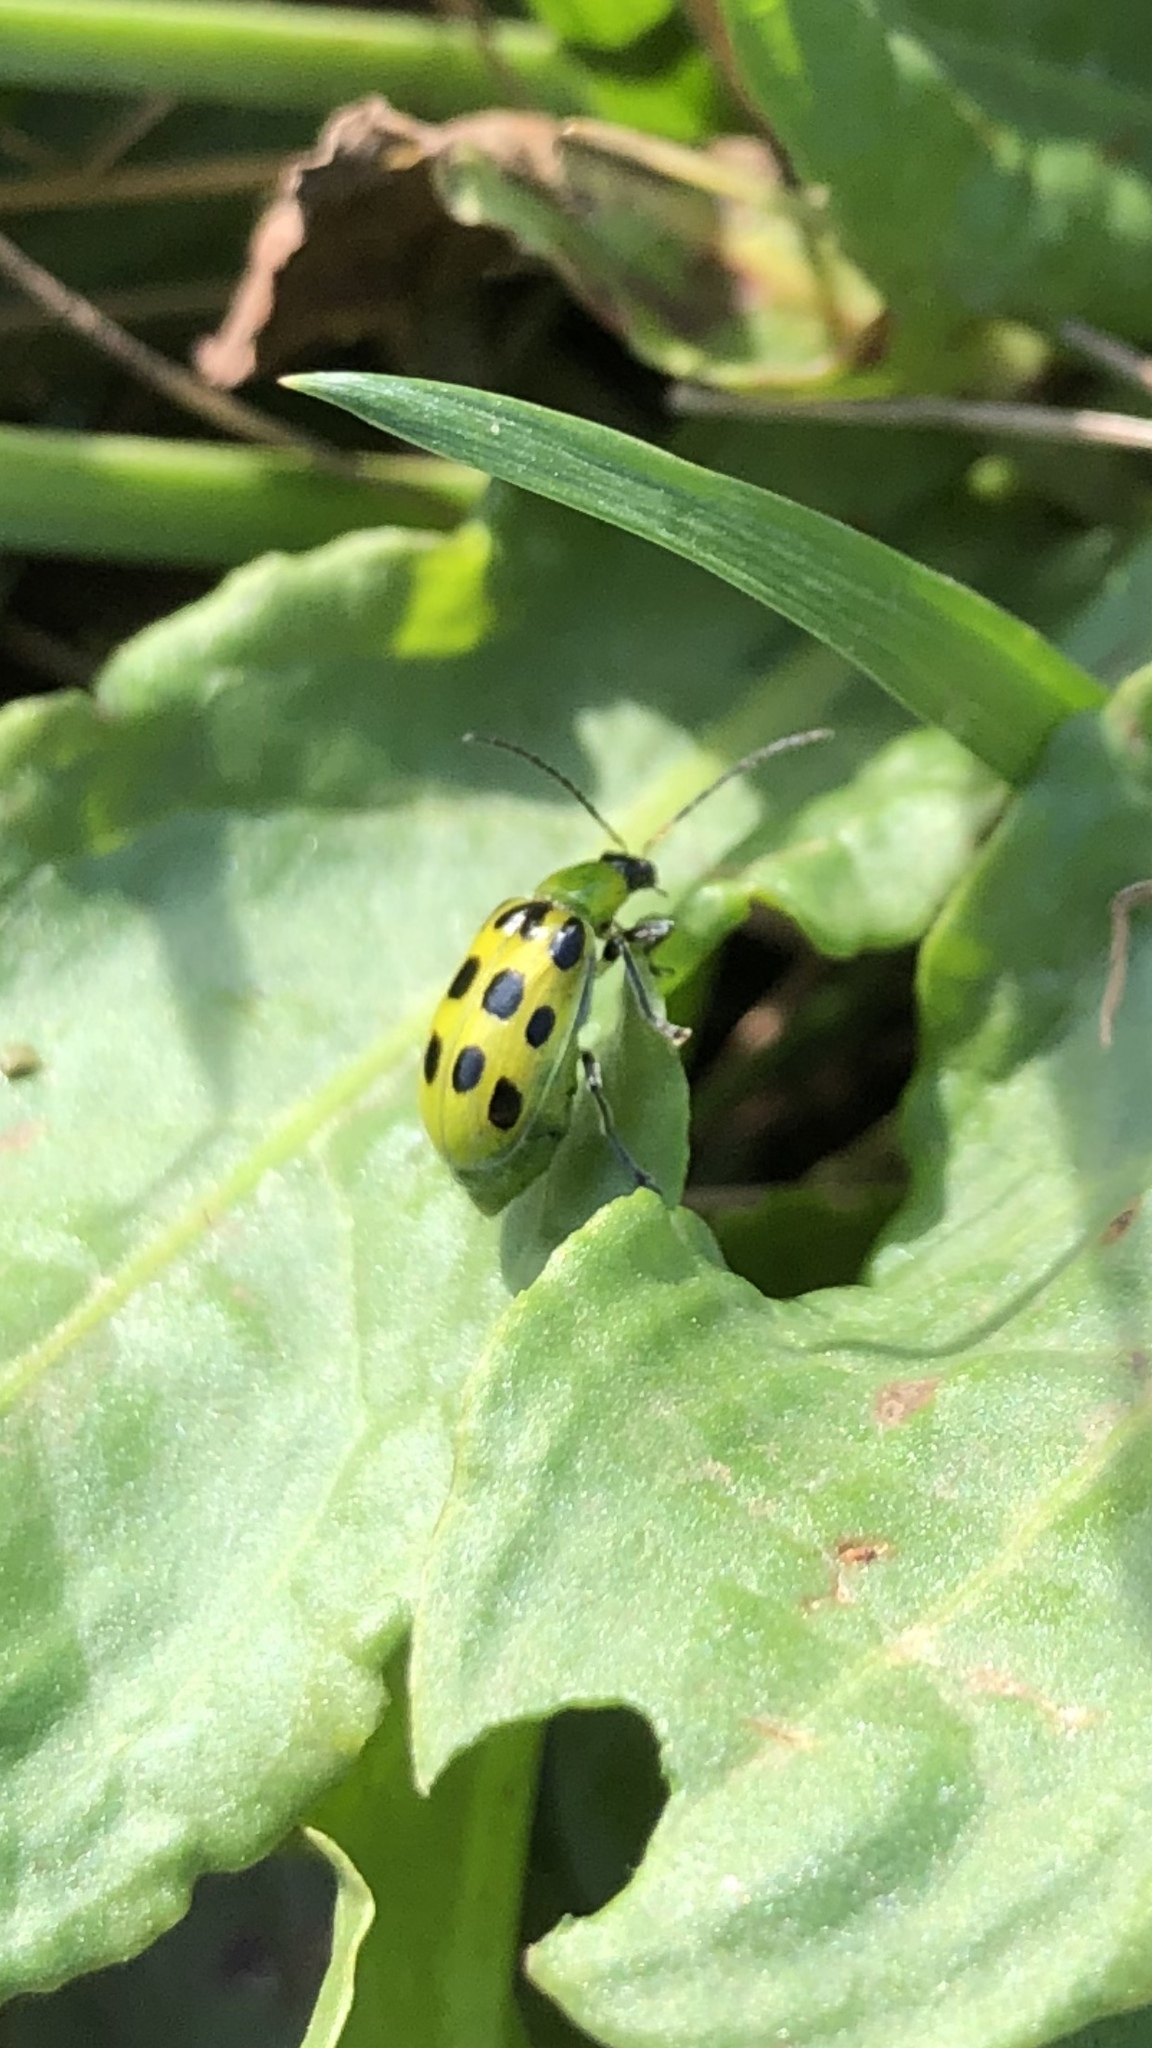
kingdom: Animalia
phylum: Arthropoda
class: Insecta
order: Coleoptera
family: Chrysomelidae
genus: Diabrotica
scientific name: Diabrotica undecimpunctata
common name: Spotted cucumber beetle
